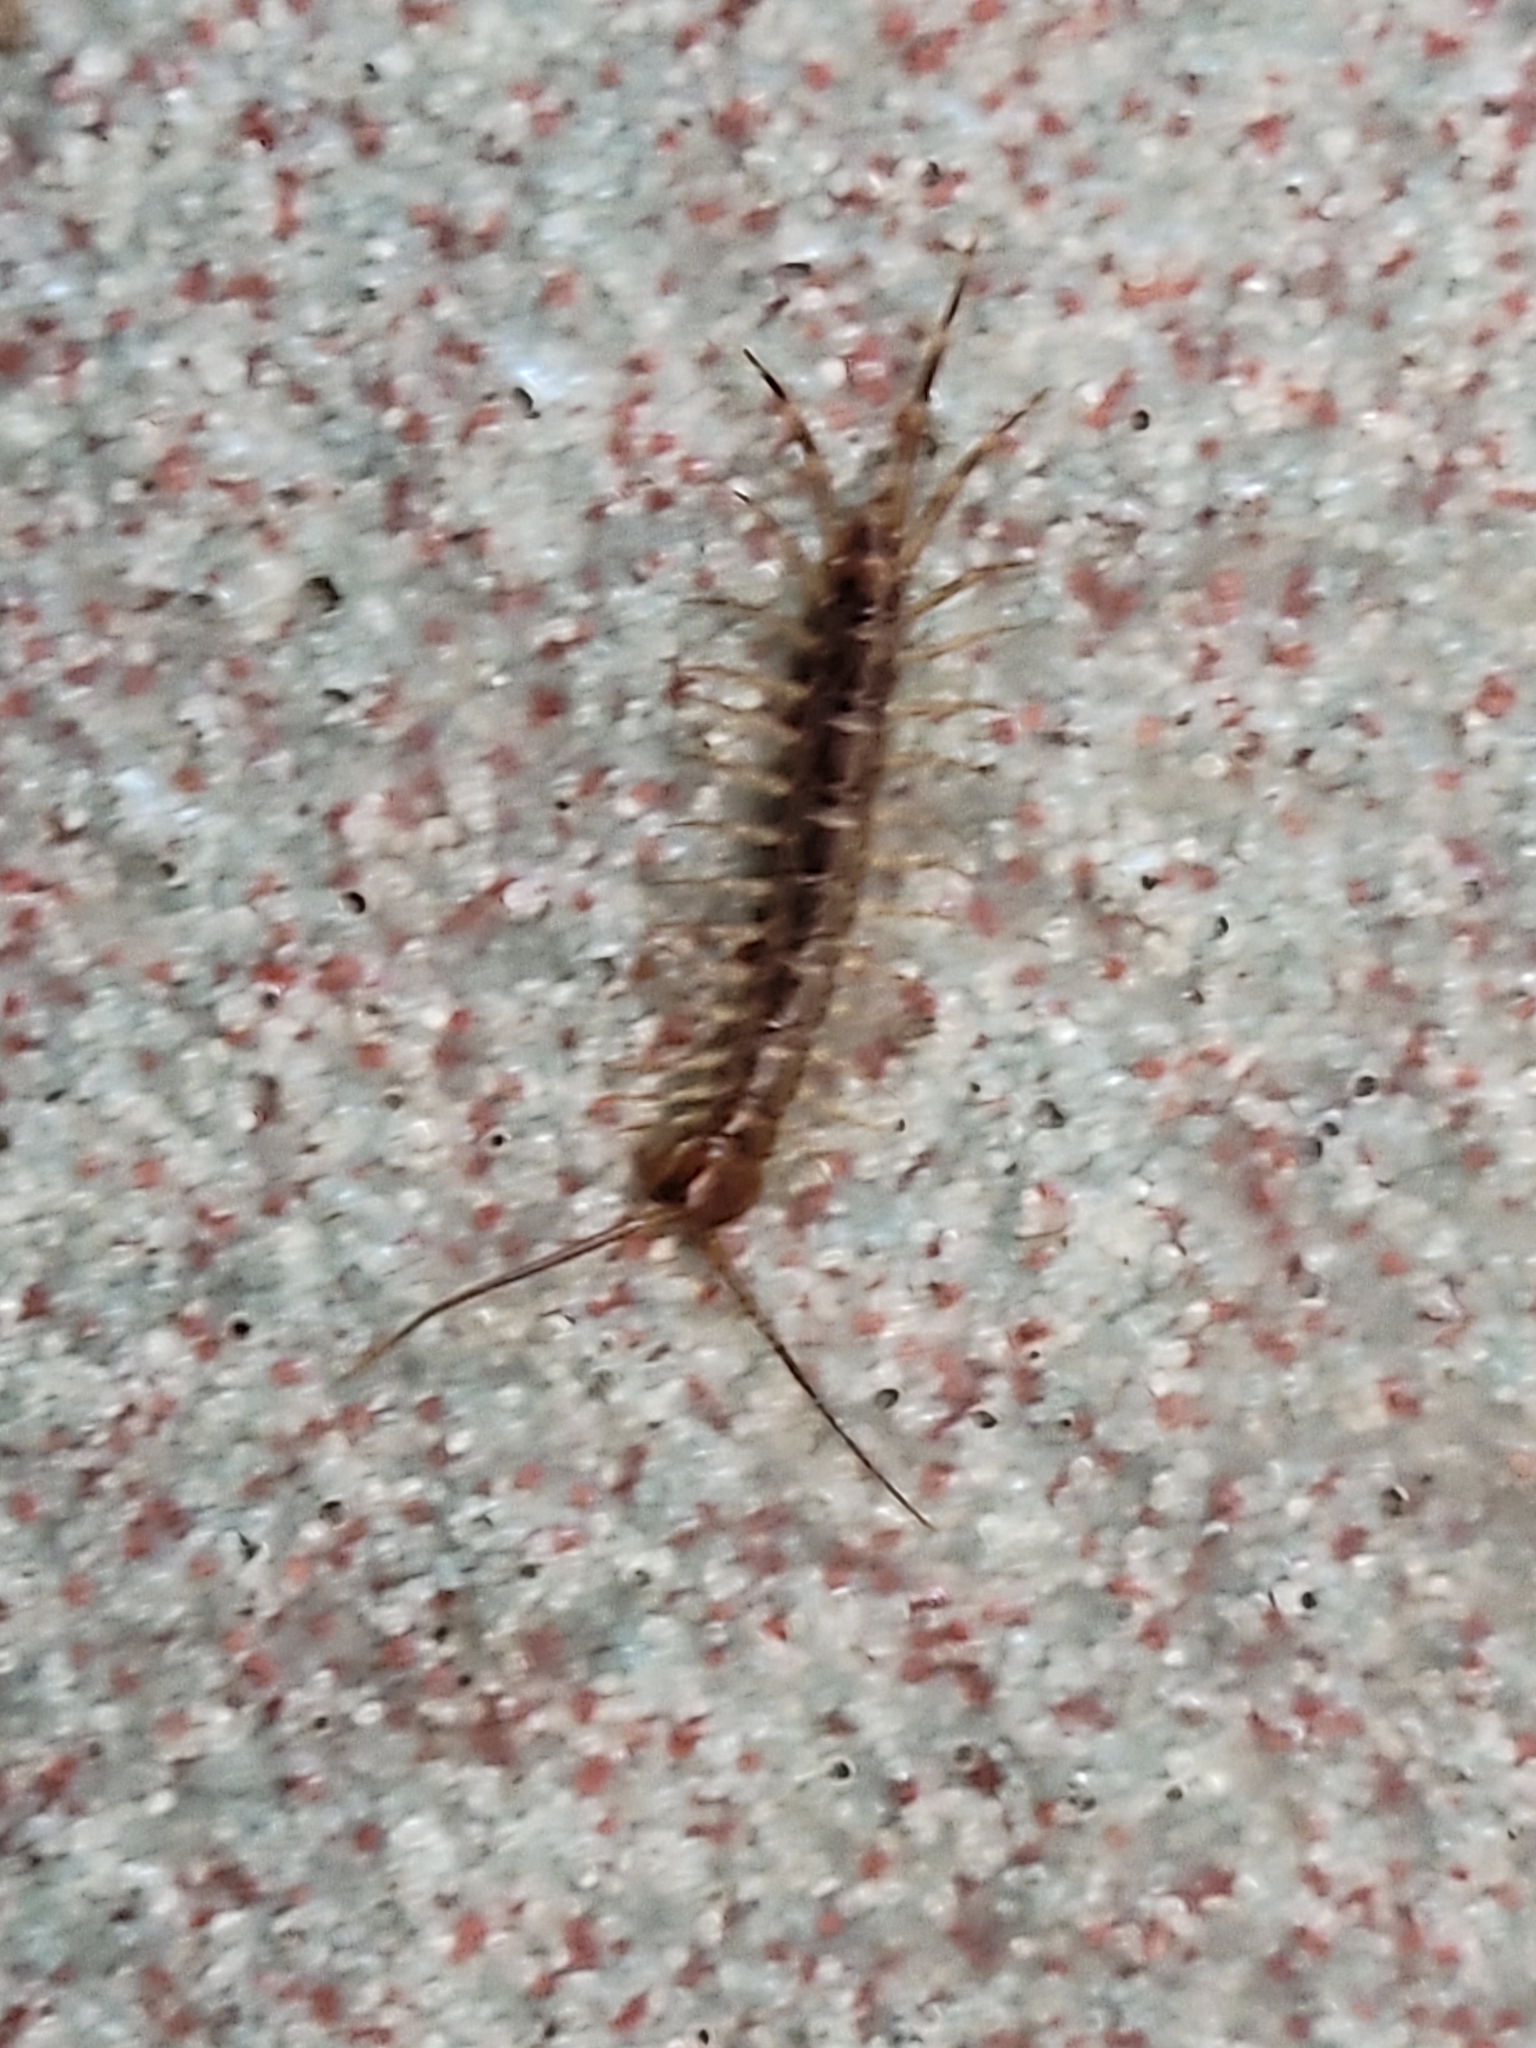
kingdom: Animalia
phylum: Arthropoda
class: Chilopoda
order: Scutigeromorpha
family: Scutigeridae
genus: Scutigera
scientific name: Scutigera coleoptrata
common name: House centipede
